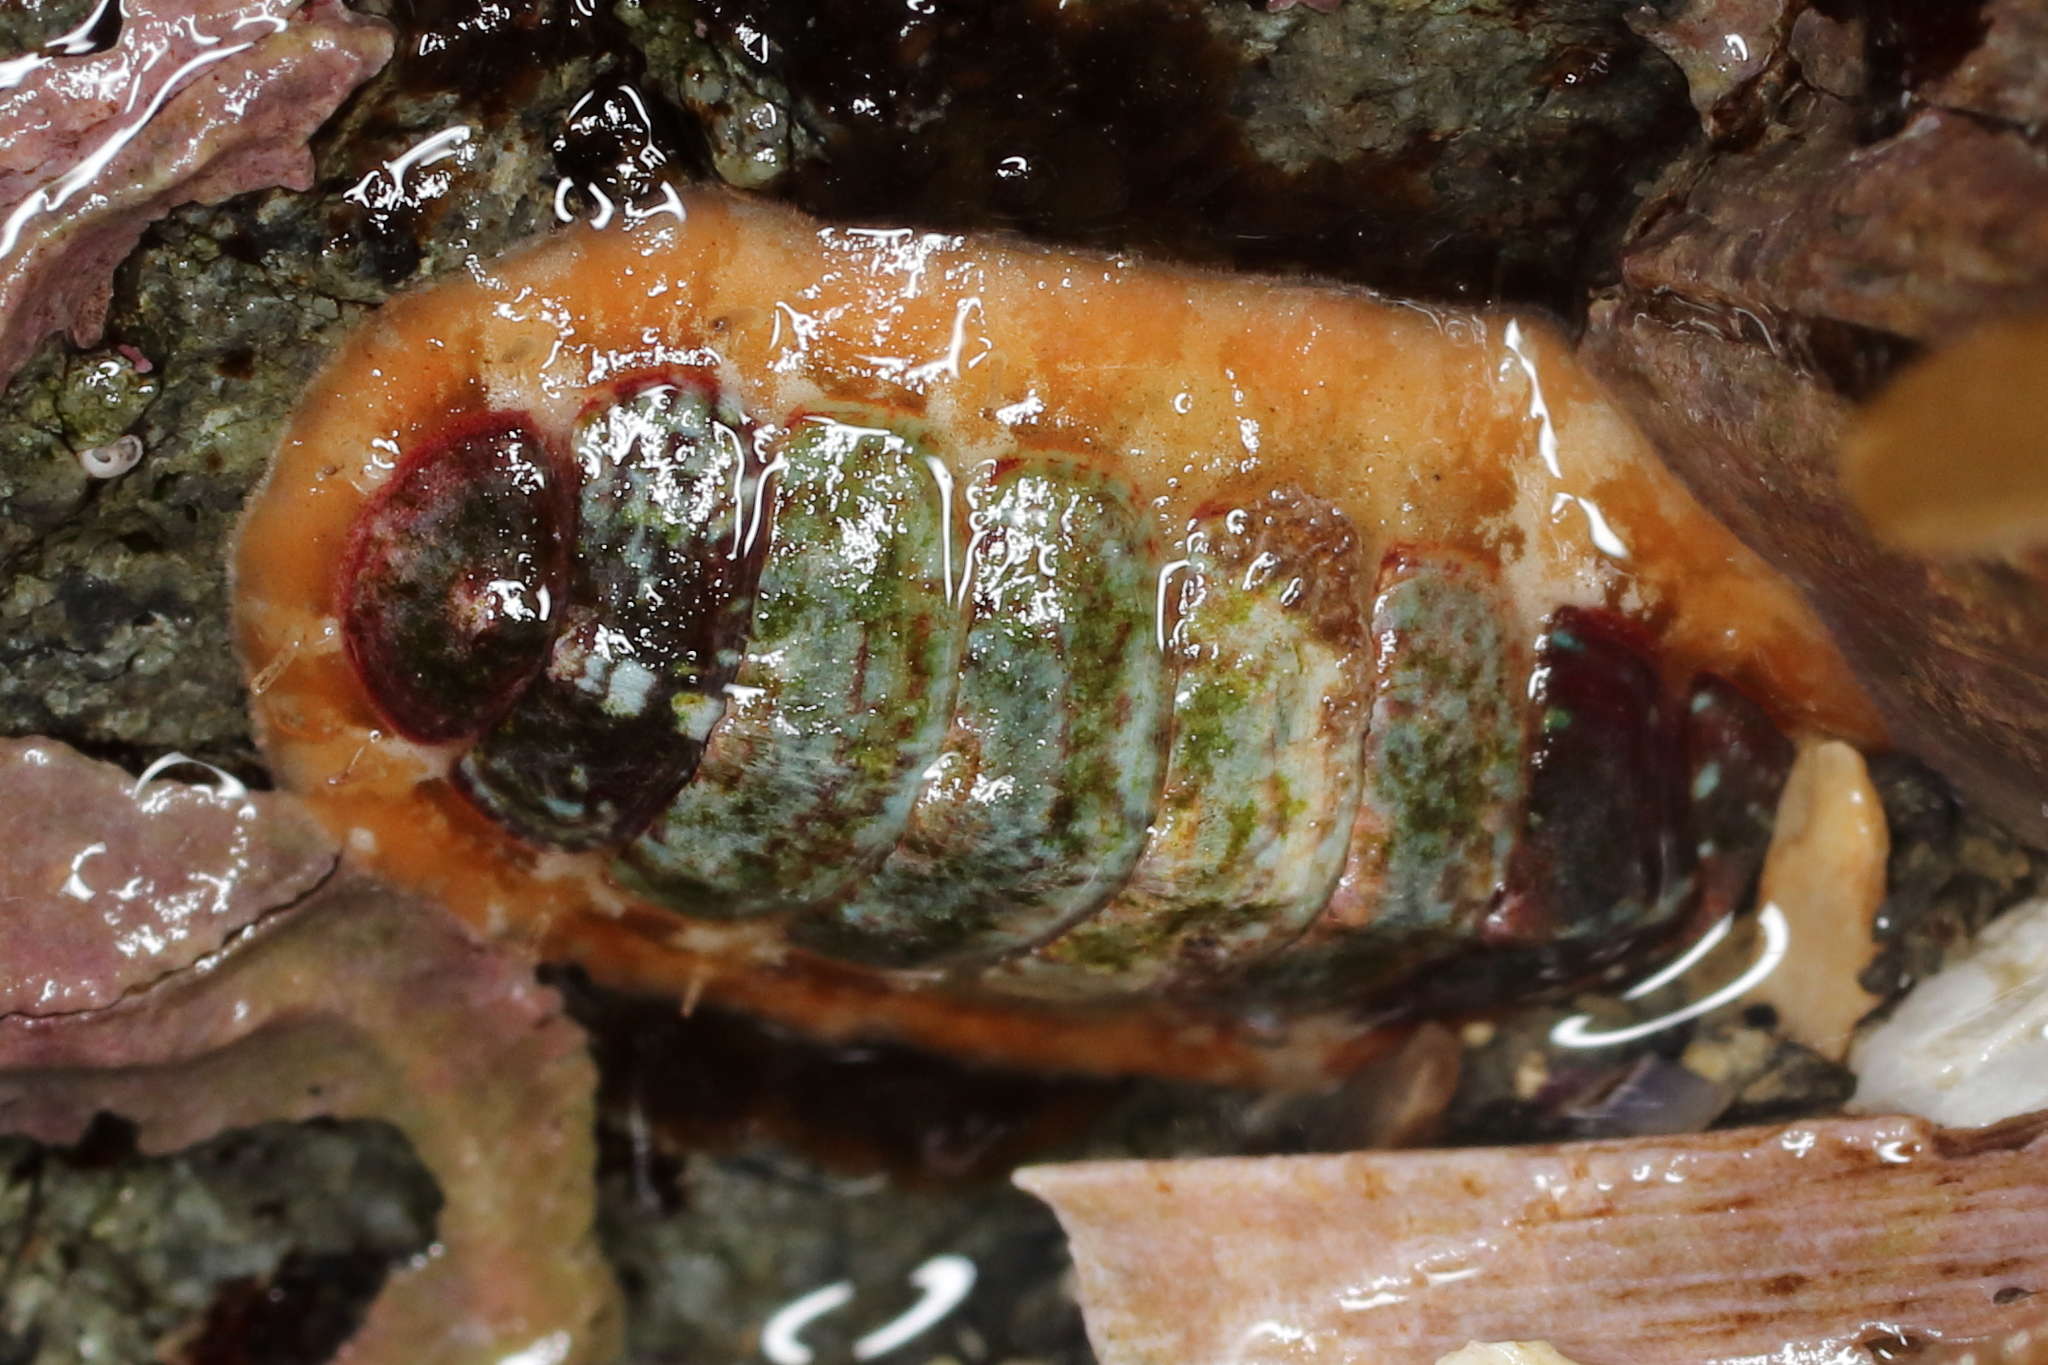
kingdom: Animalia
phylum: Mollusca
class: Polyplacophora
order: Chitonida
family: Mopaliidae
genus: Dendrochiton
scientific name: Dendrochiton flectens
